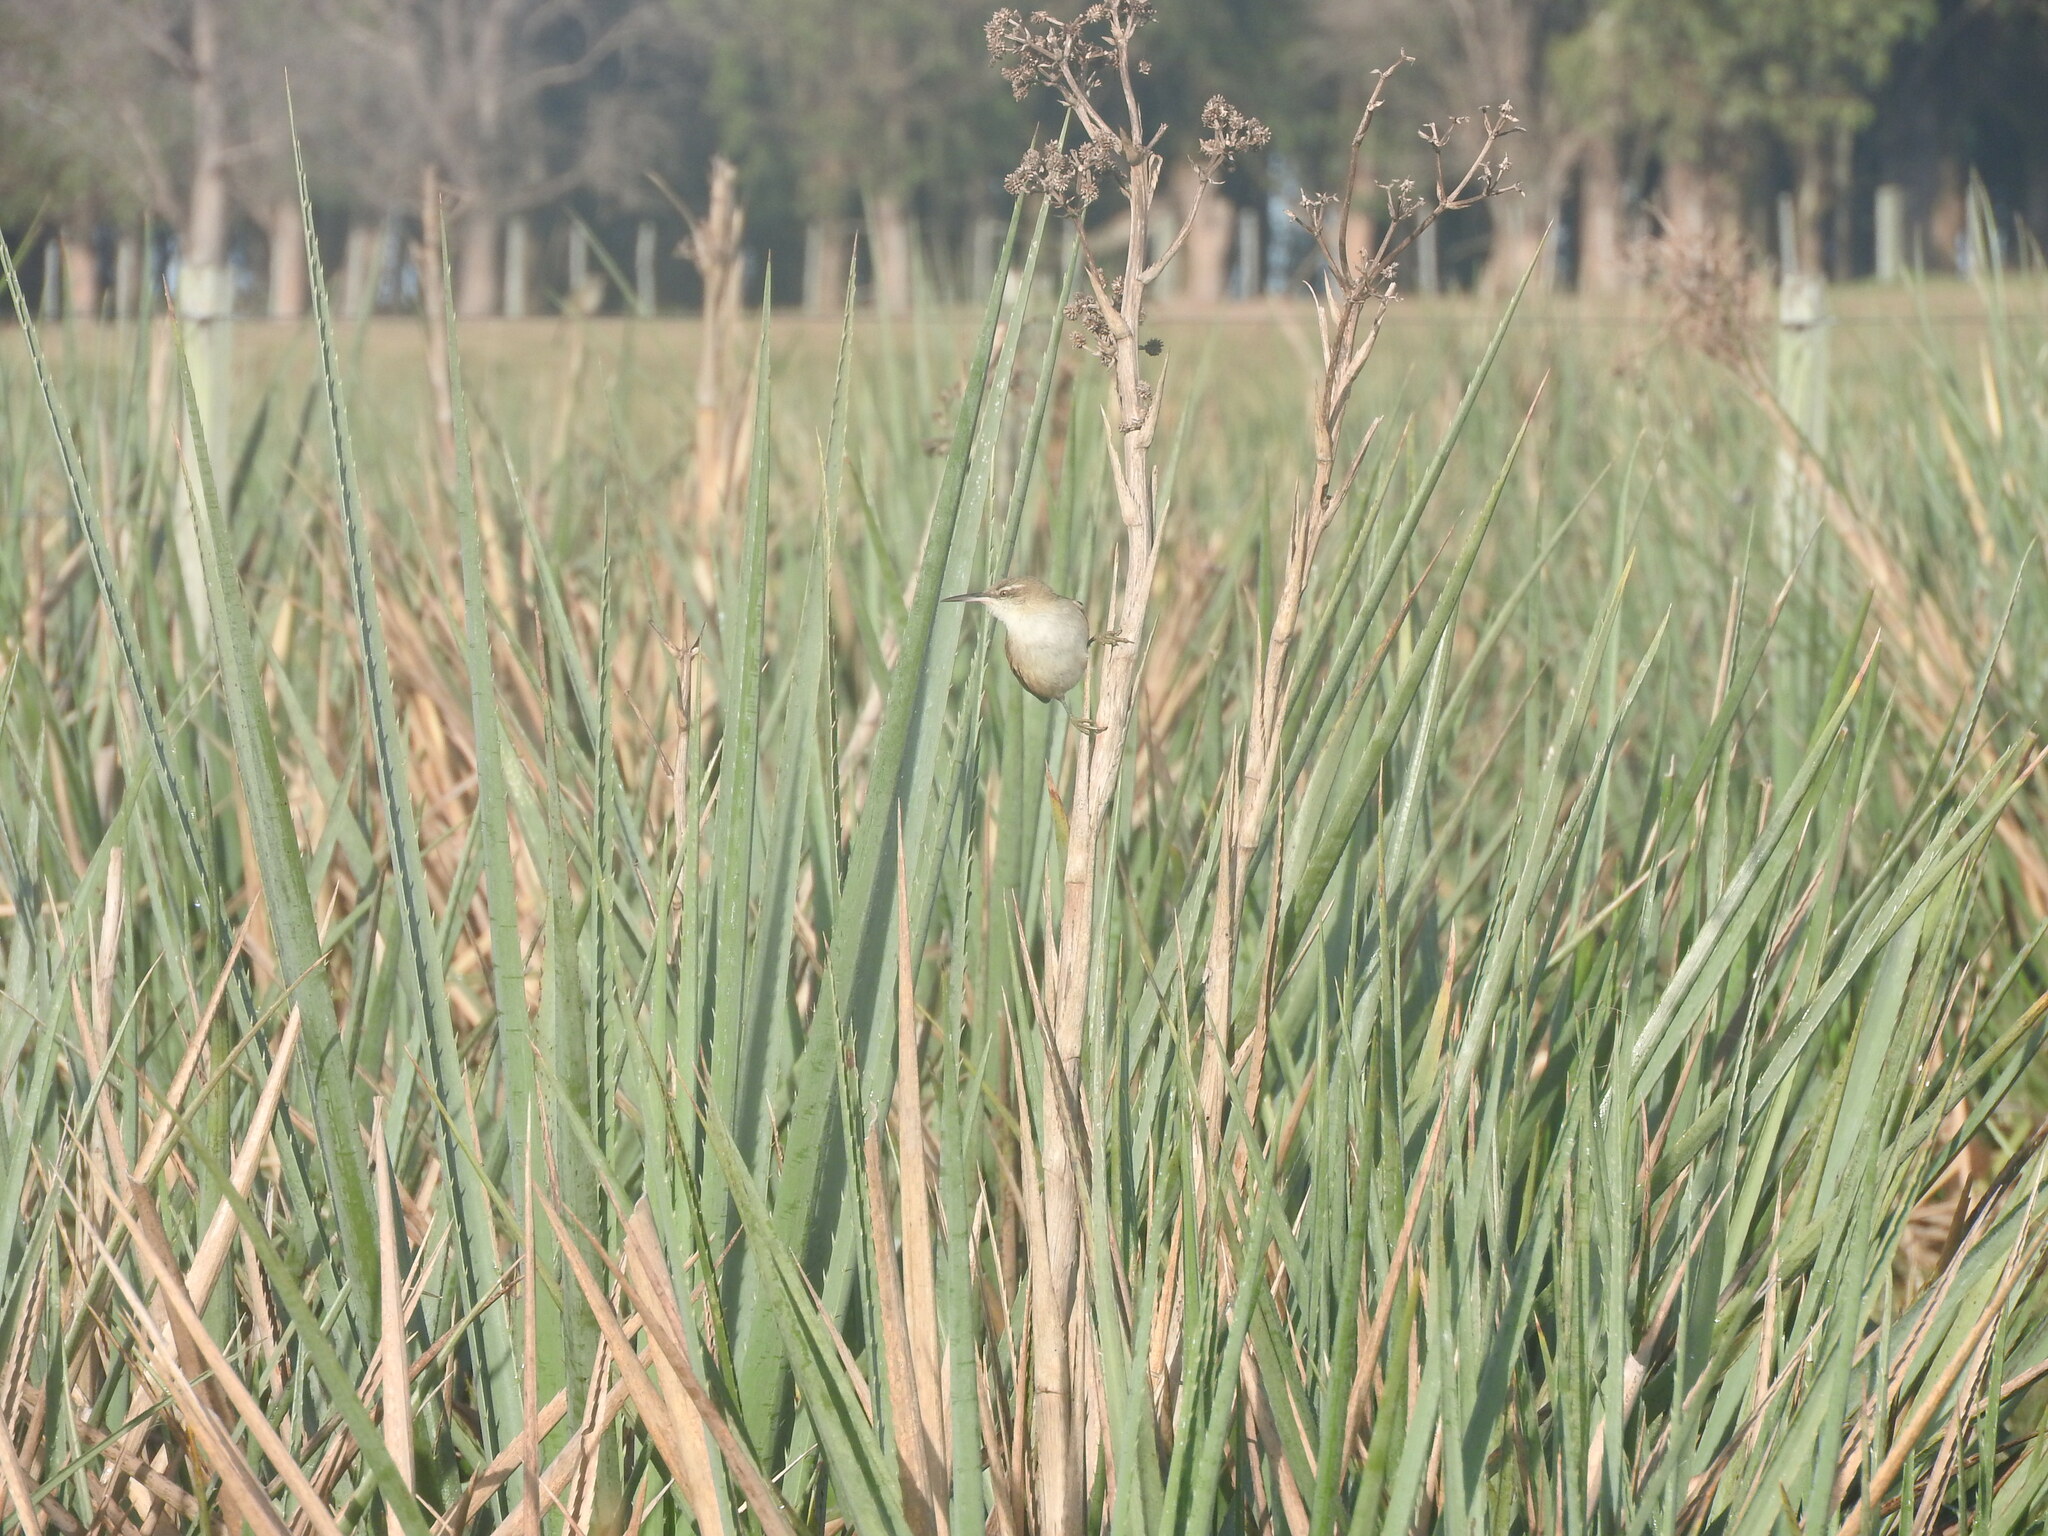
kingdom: Animalia
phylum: Chordata
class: Aves
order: Passeriformes
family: Furnariidae
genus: Limnornis
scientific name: Limnornis rectirostris
